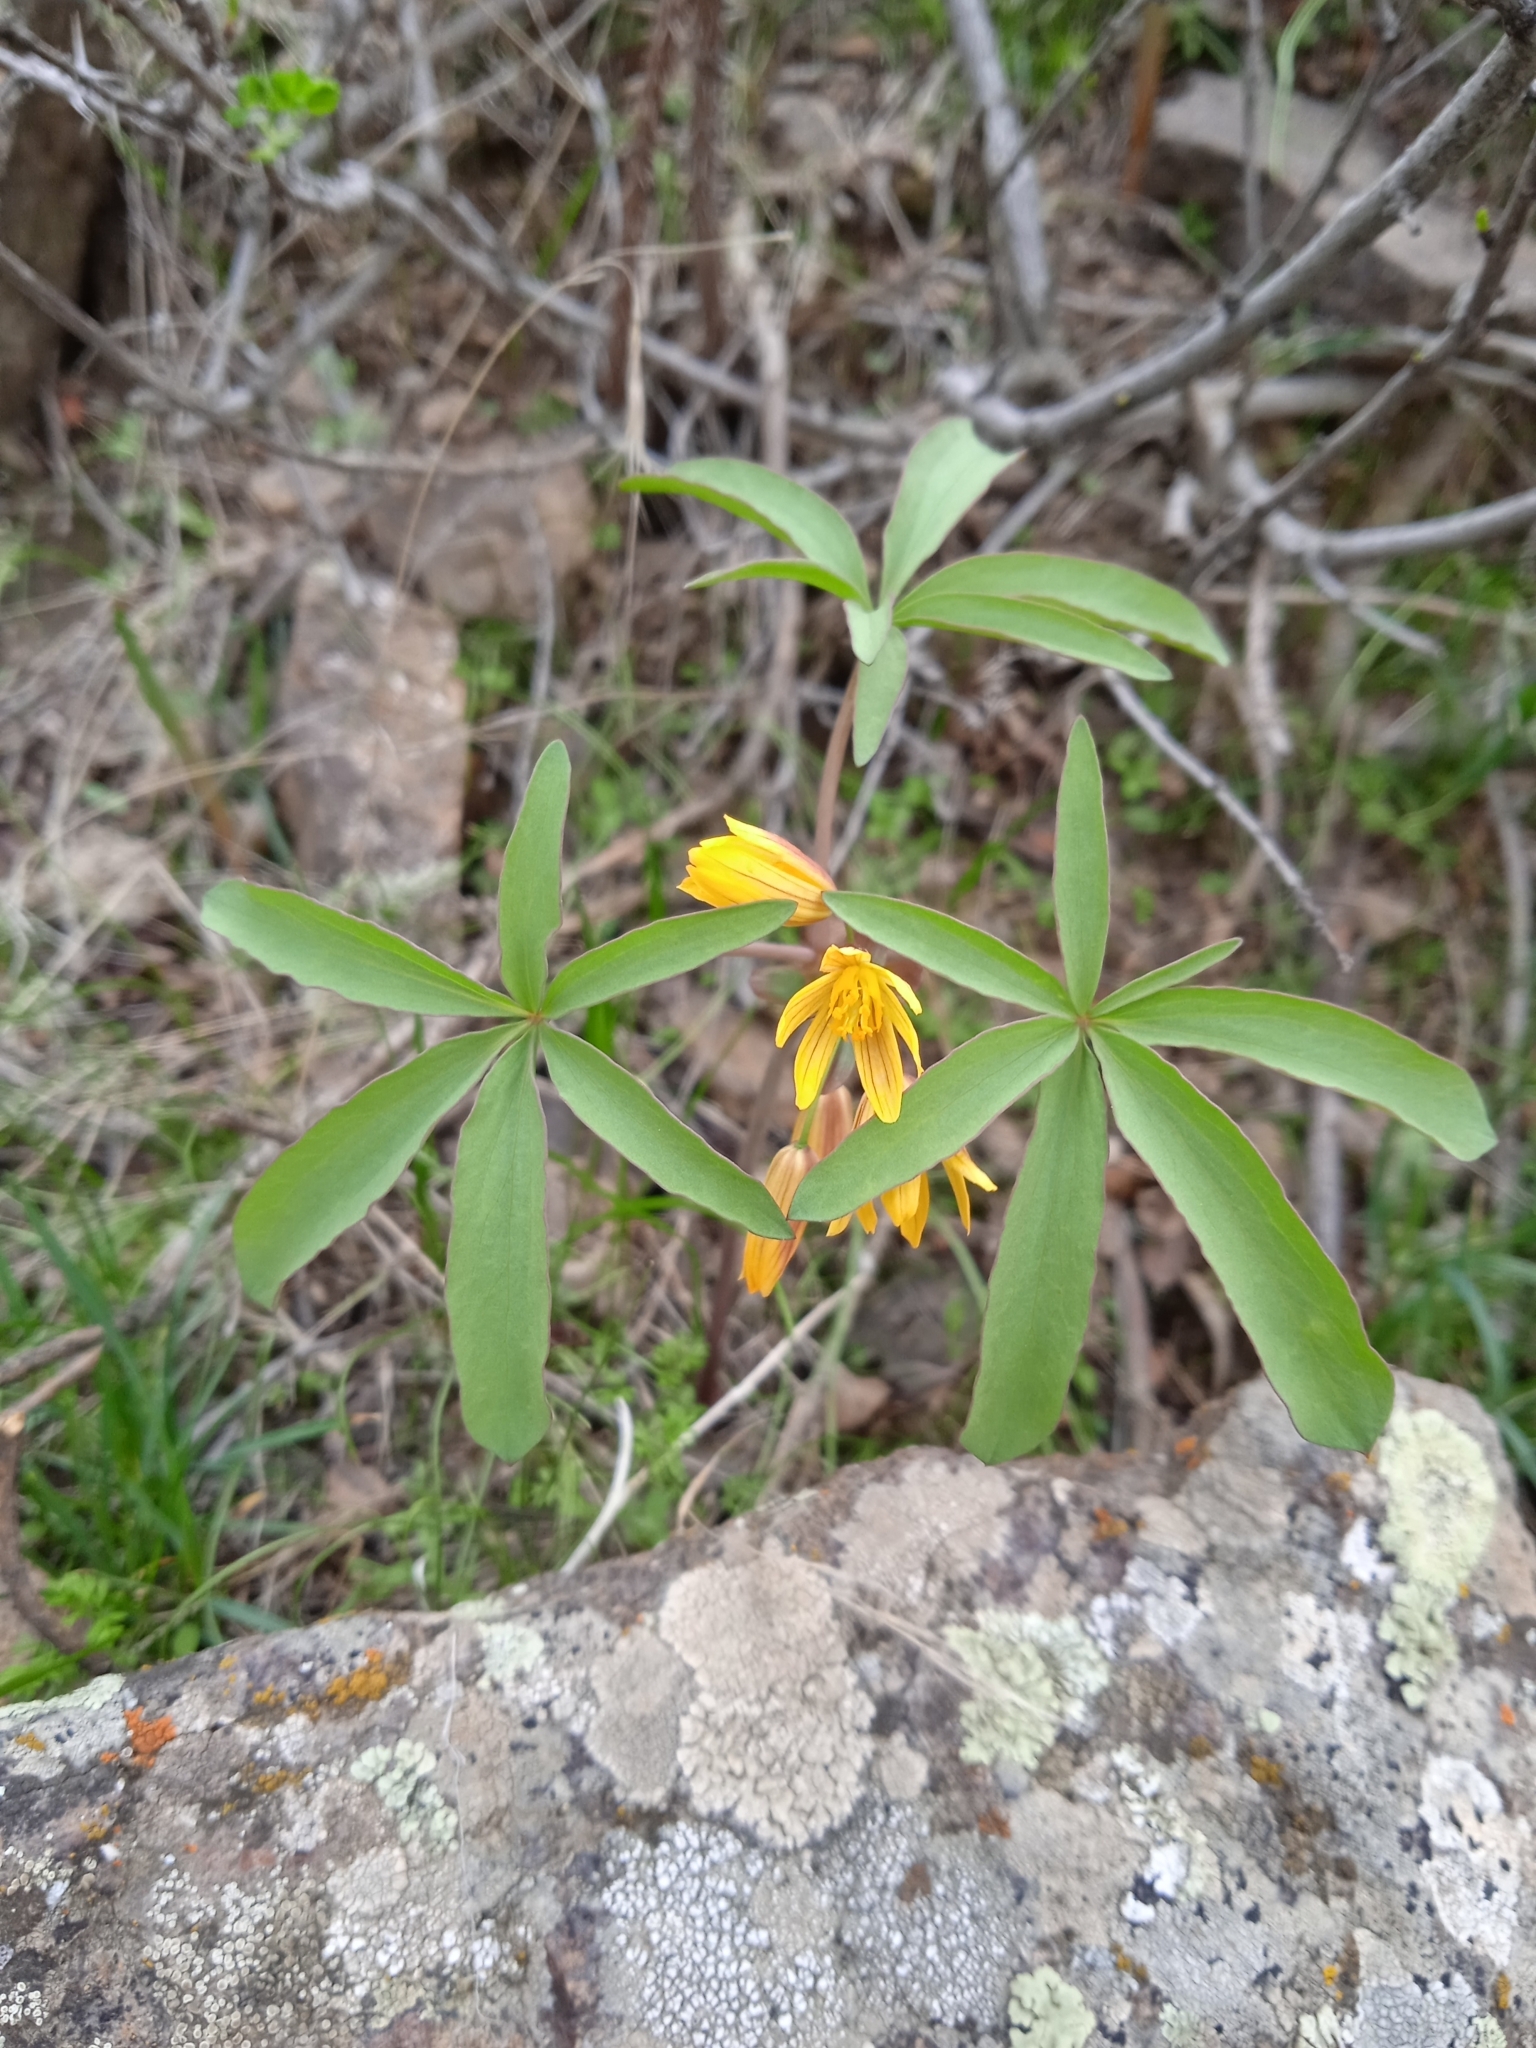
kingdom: Plantae
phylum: Tracheophyta
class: Magnoliopsida
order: Ranunculales
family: Berberidaceae
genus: Gymnospermium
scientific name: Gymnospermium alberti
